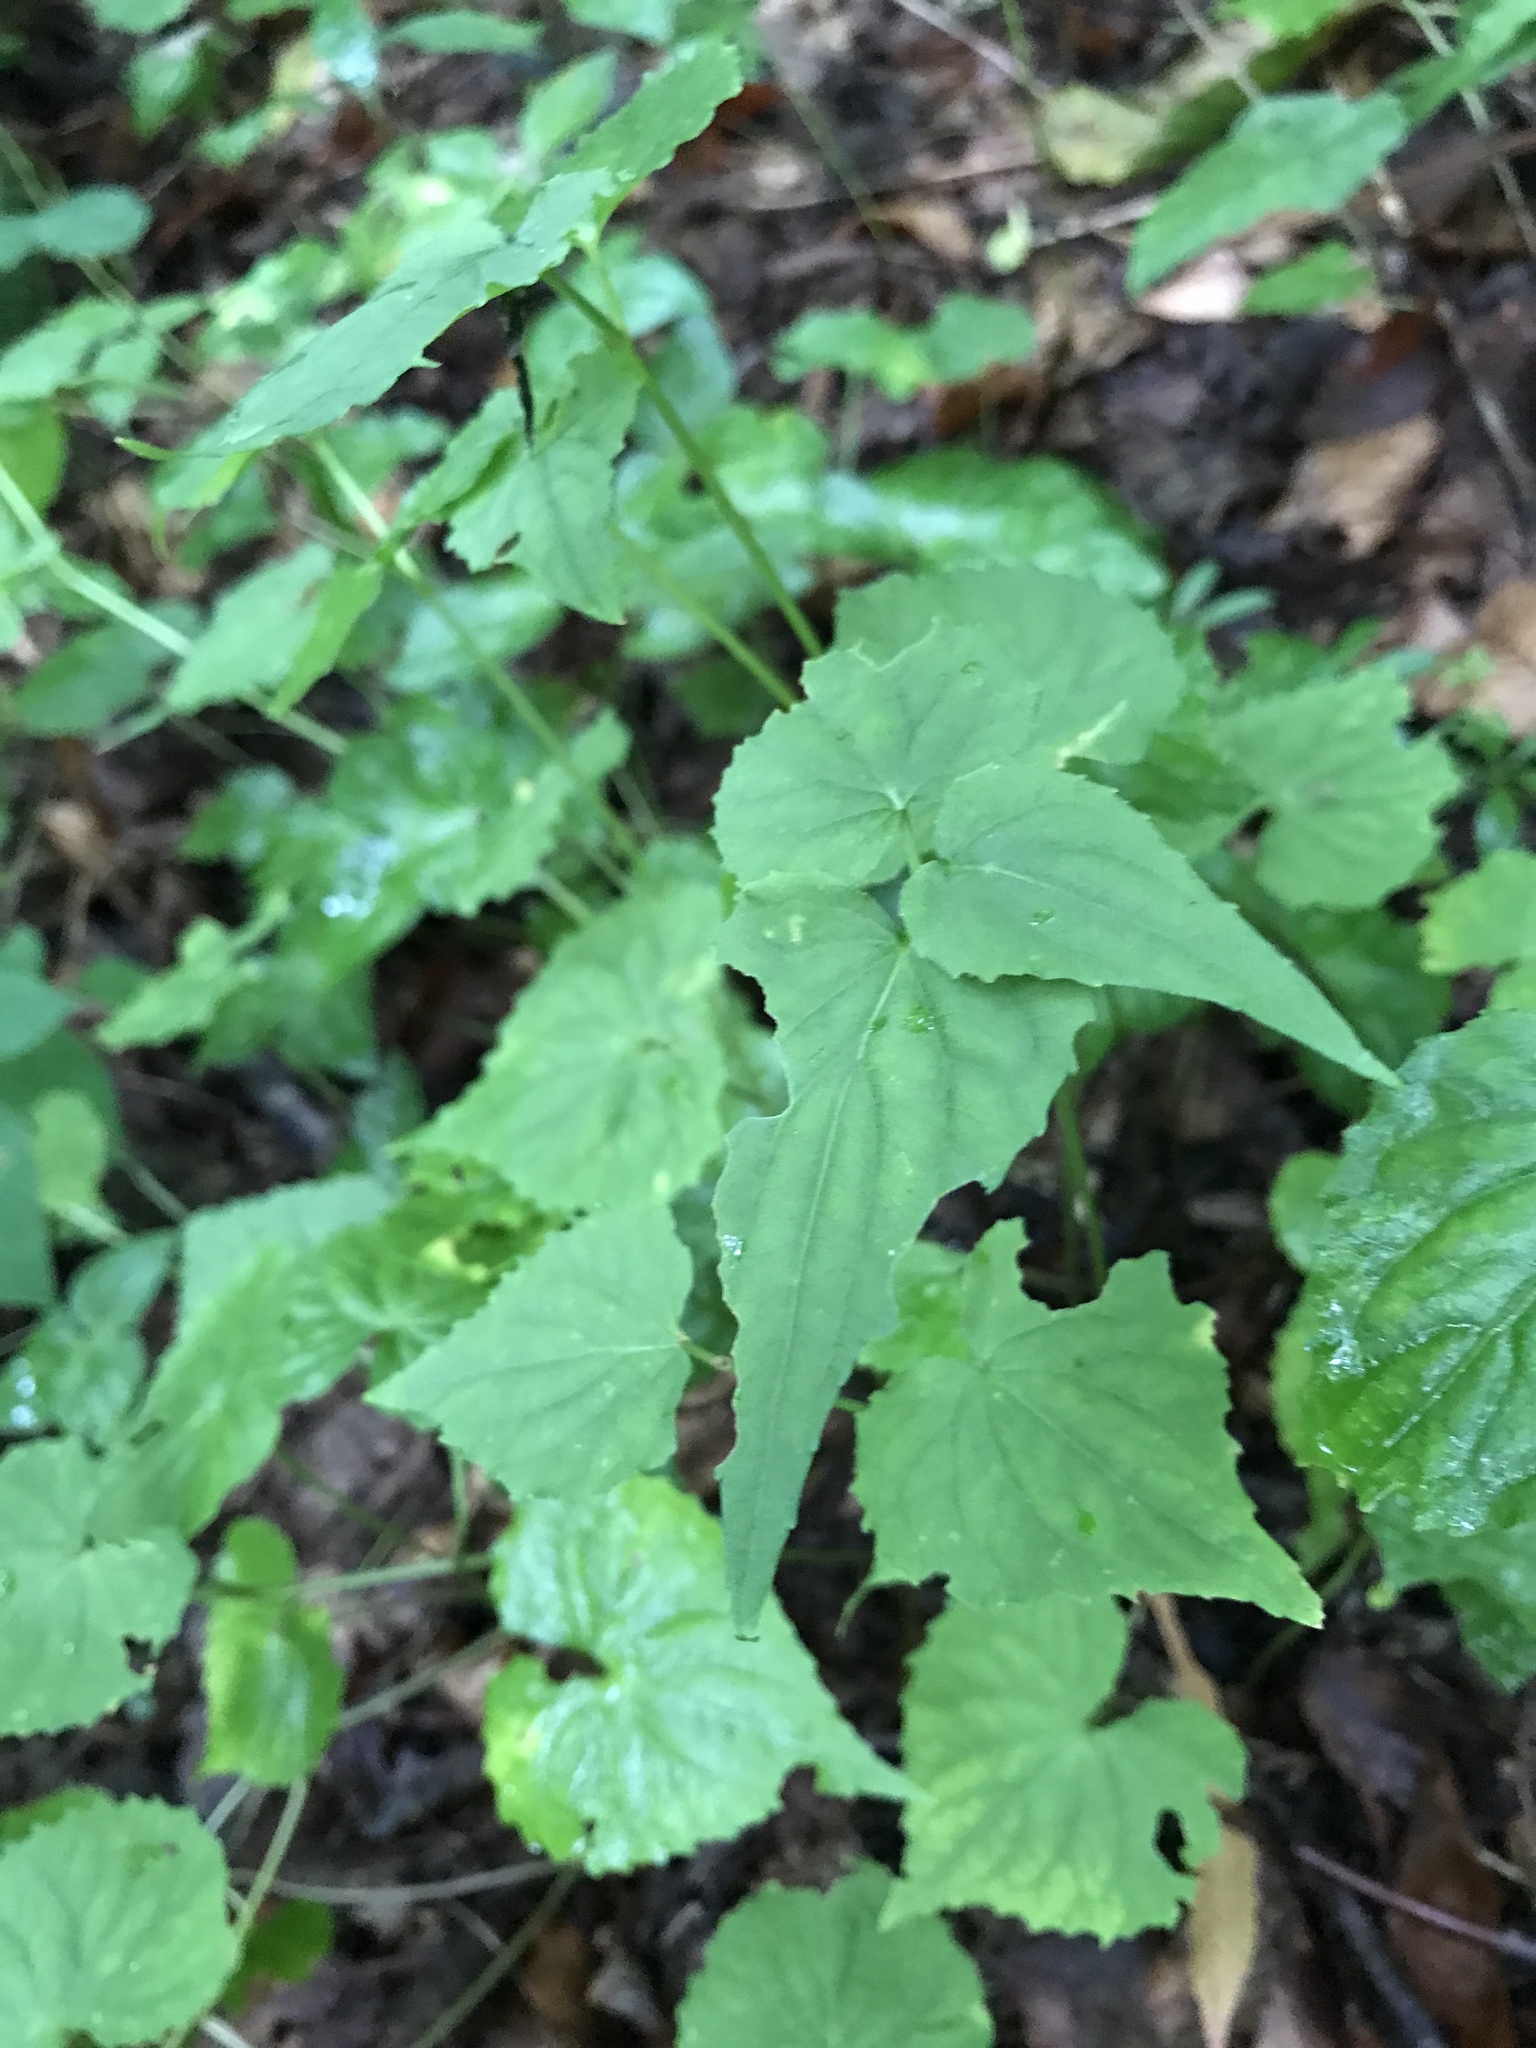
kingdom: Plantae
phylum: Tracheophyta
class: Magnoliopsida
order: Malpighiales
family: Violaceae
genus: Viola
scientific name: Viola canadensis
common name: Canada violet
